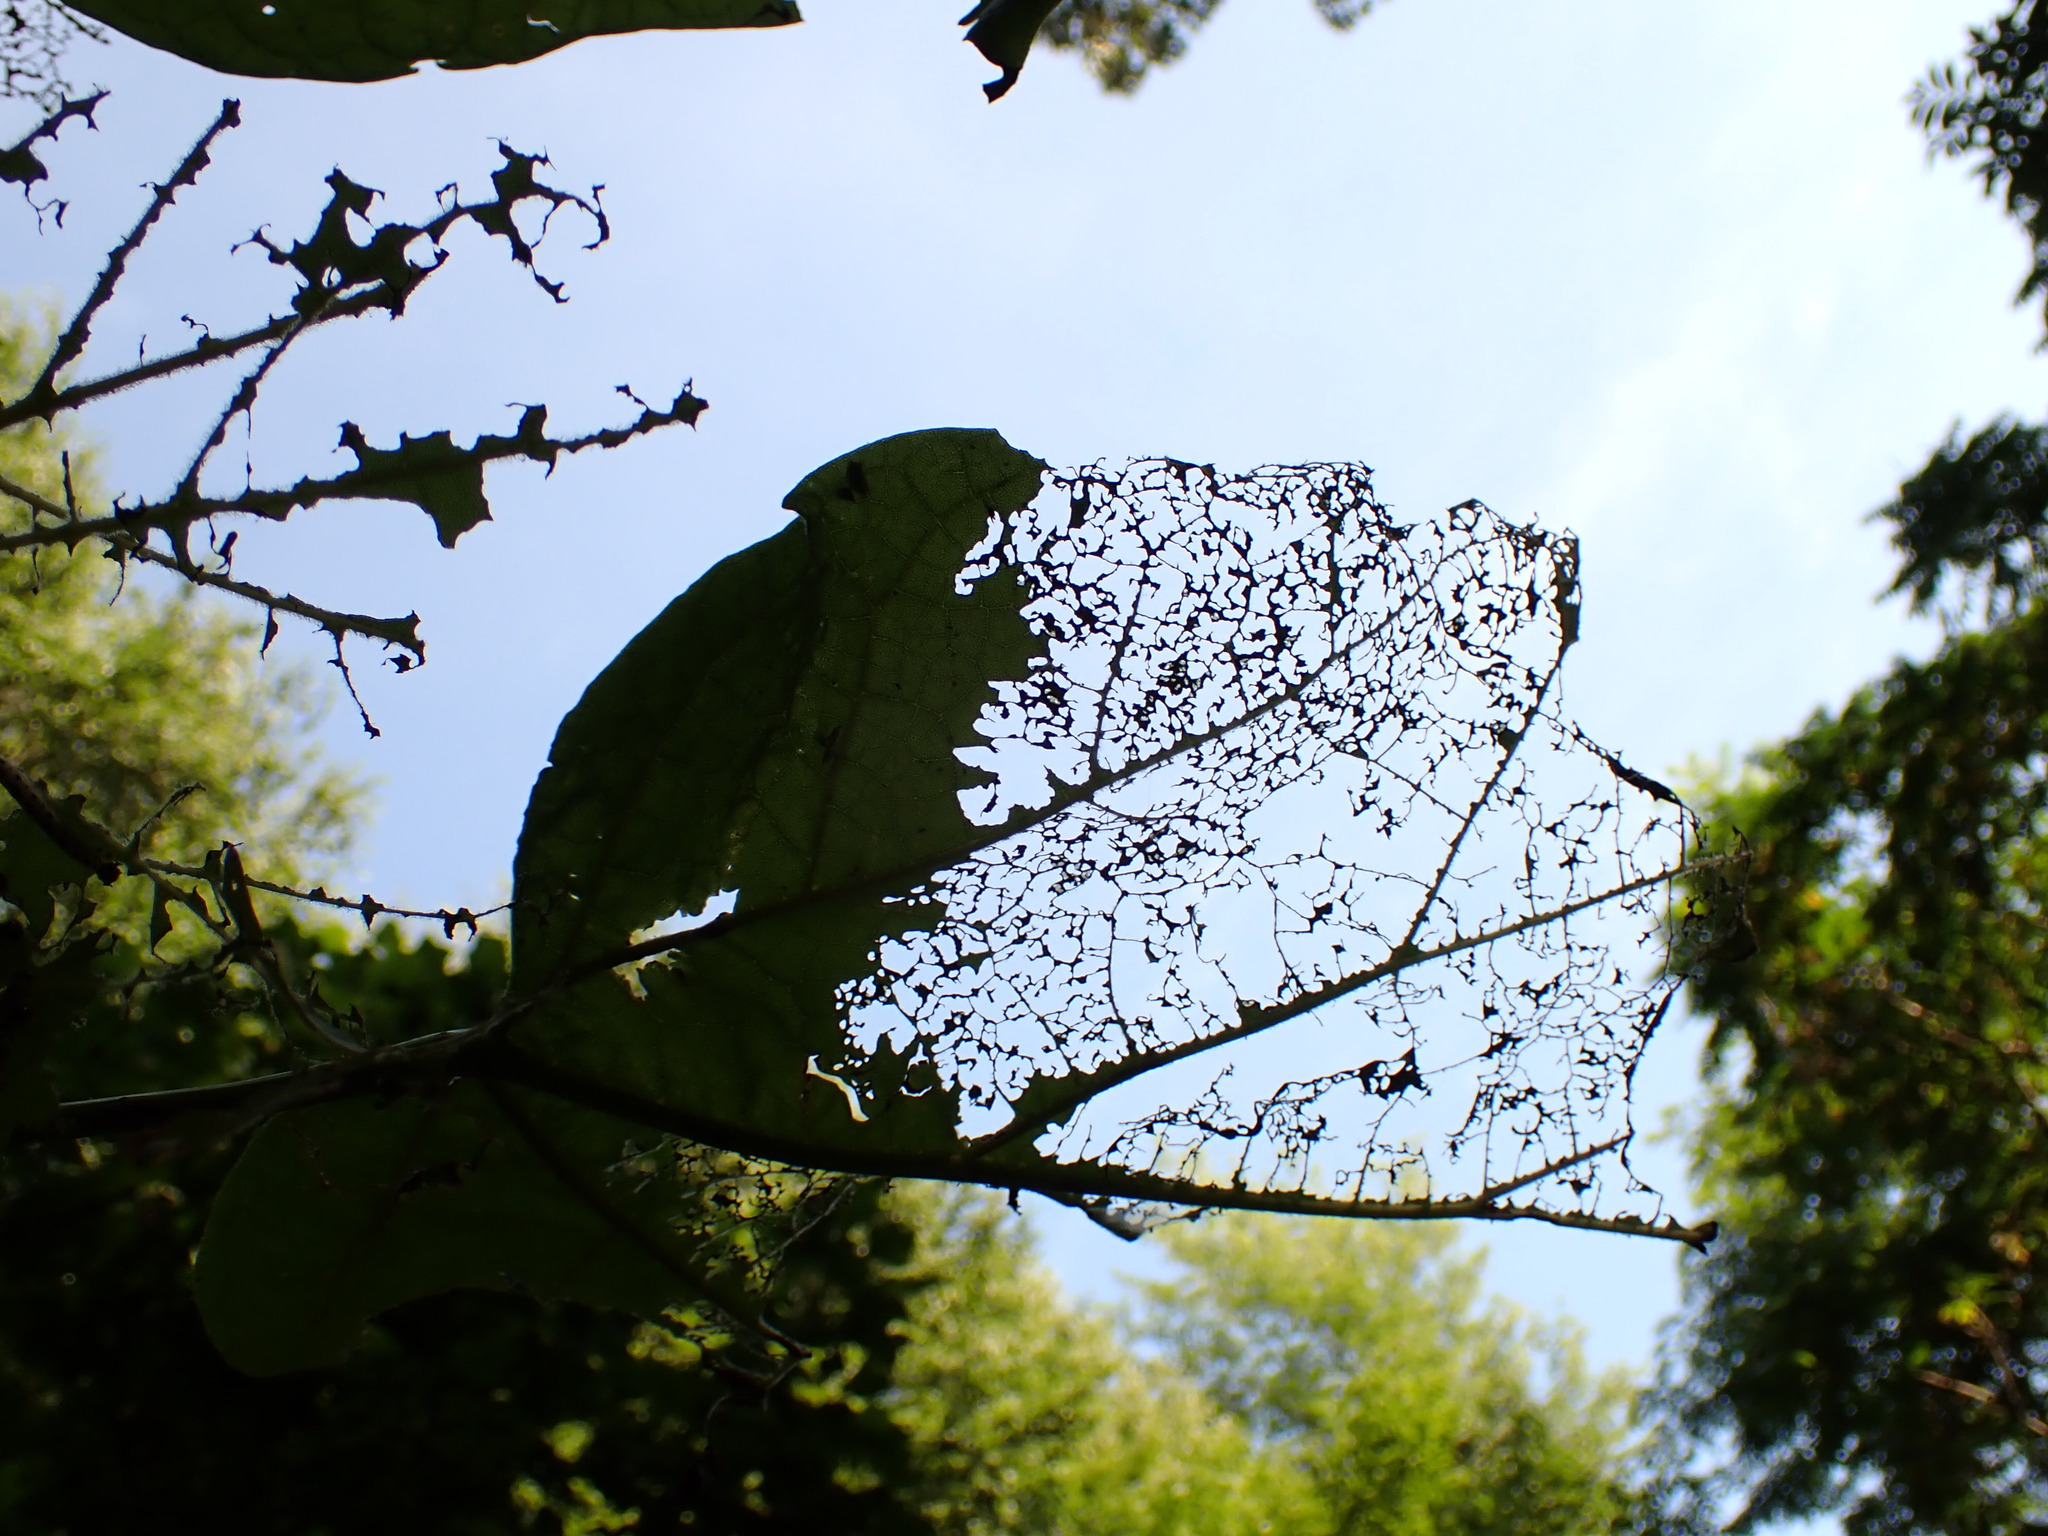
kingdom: Animalia
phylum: Arthropoda
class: Insecta
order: Lepidoptera
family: Sphingidae
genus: Ceratomia
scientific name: Ceratomia catalpae
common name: Catalpa hornworm
